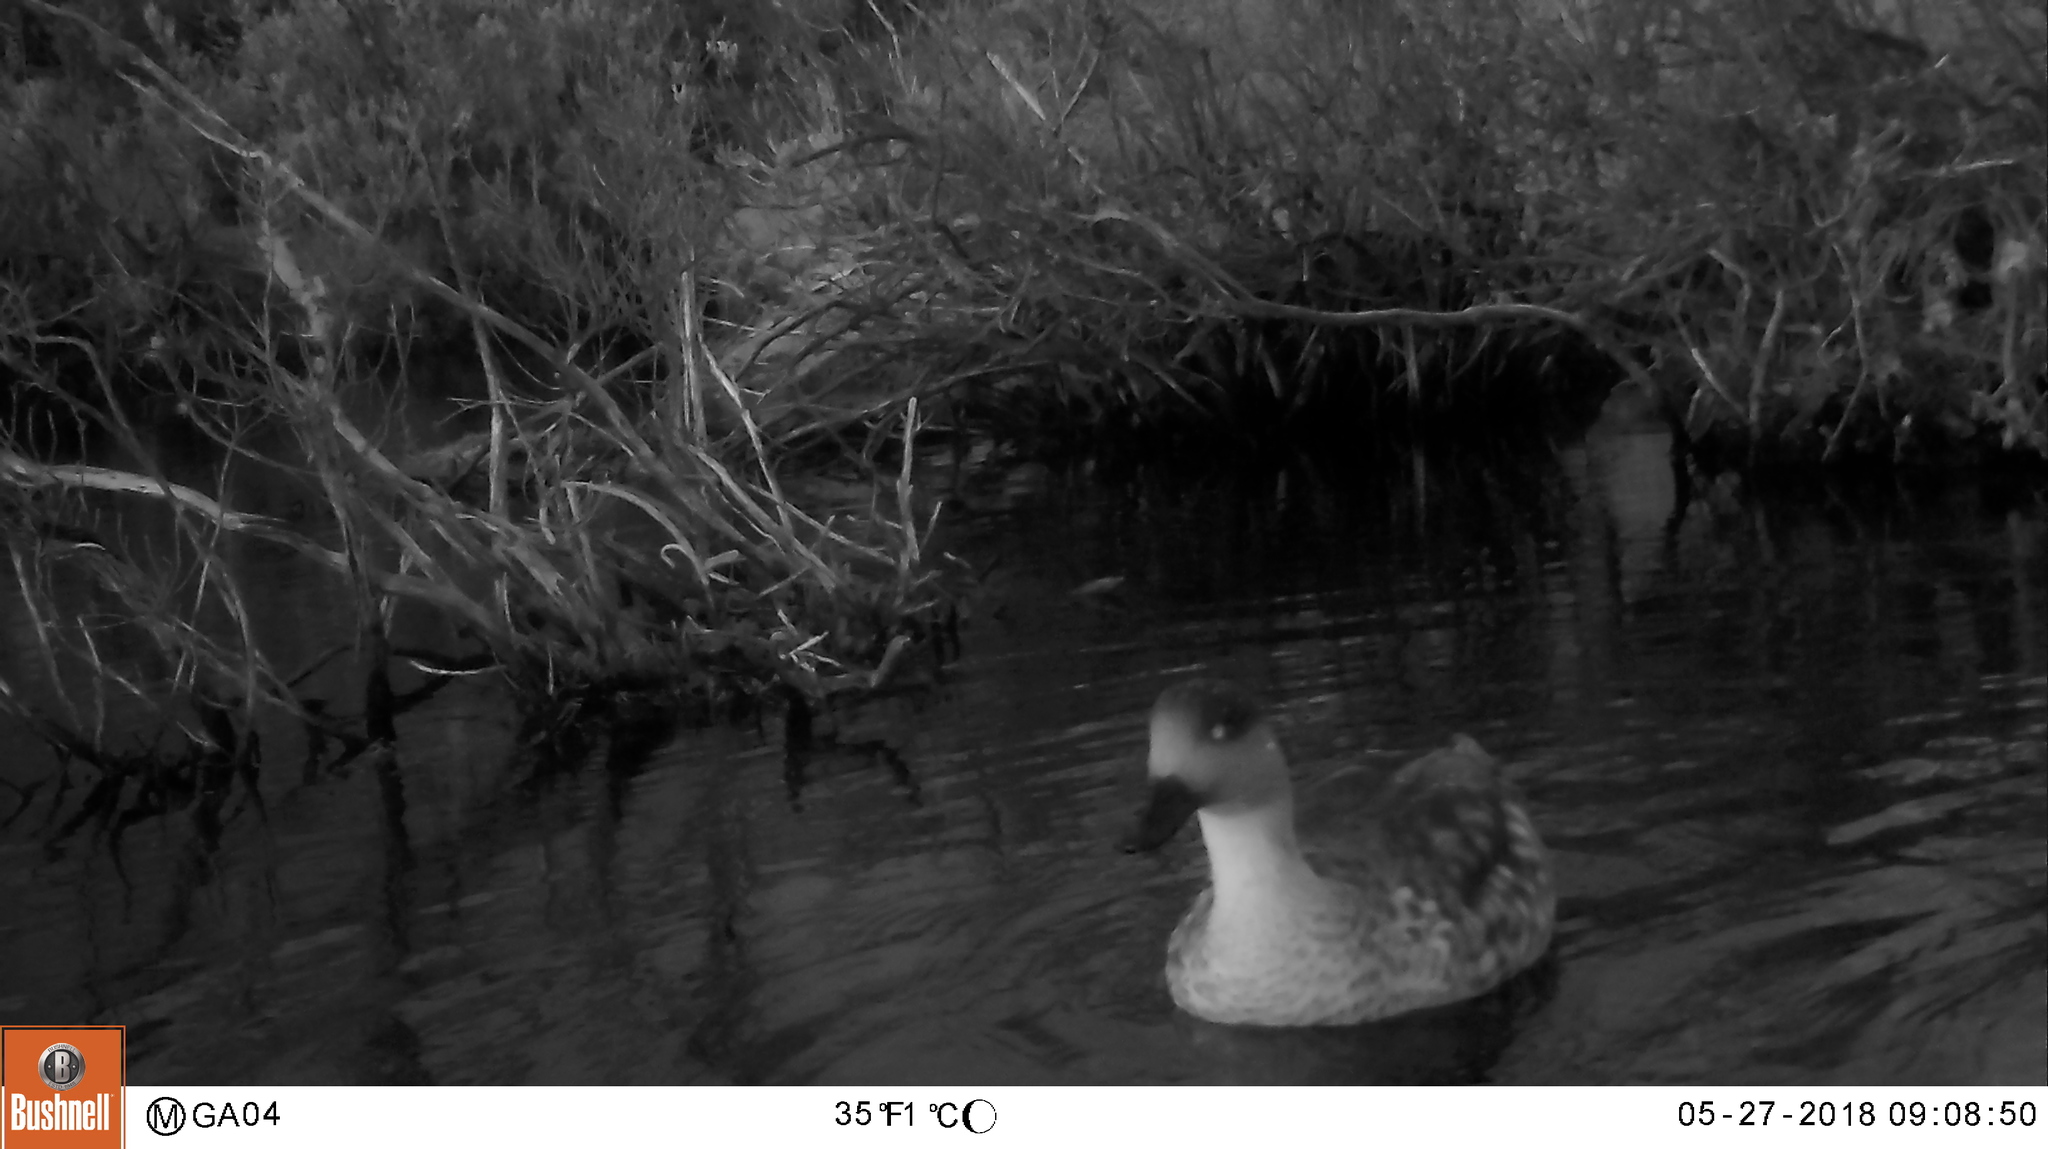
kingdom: Animalia
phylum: Chordata
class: Aves
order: Anseriformes
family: Anatidae
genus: Lophonetta
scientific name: Lophonetta specularioides
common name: Crested duck
